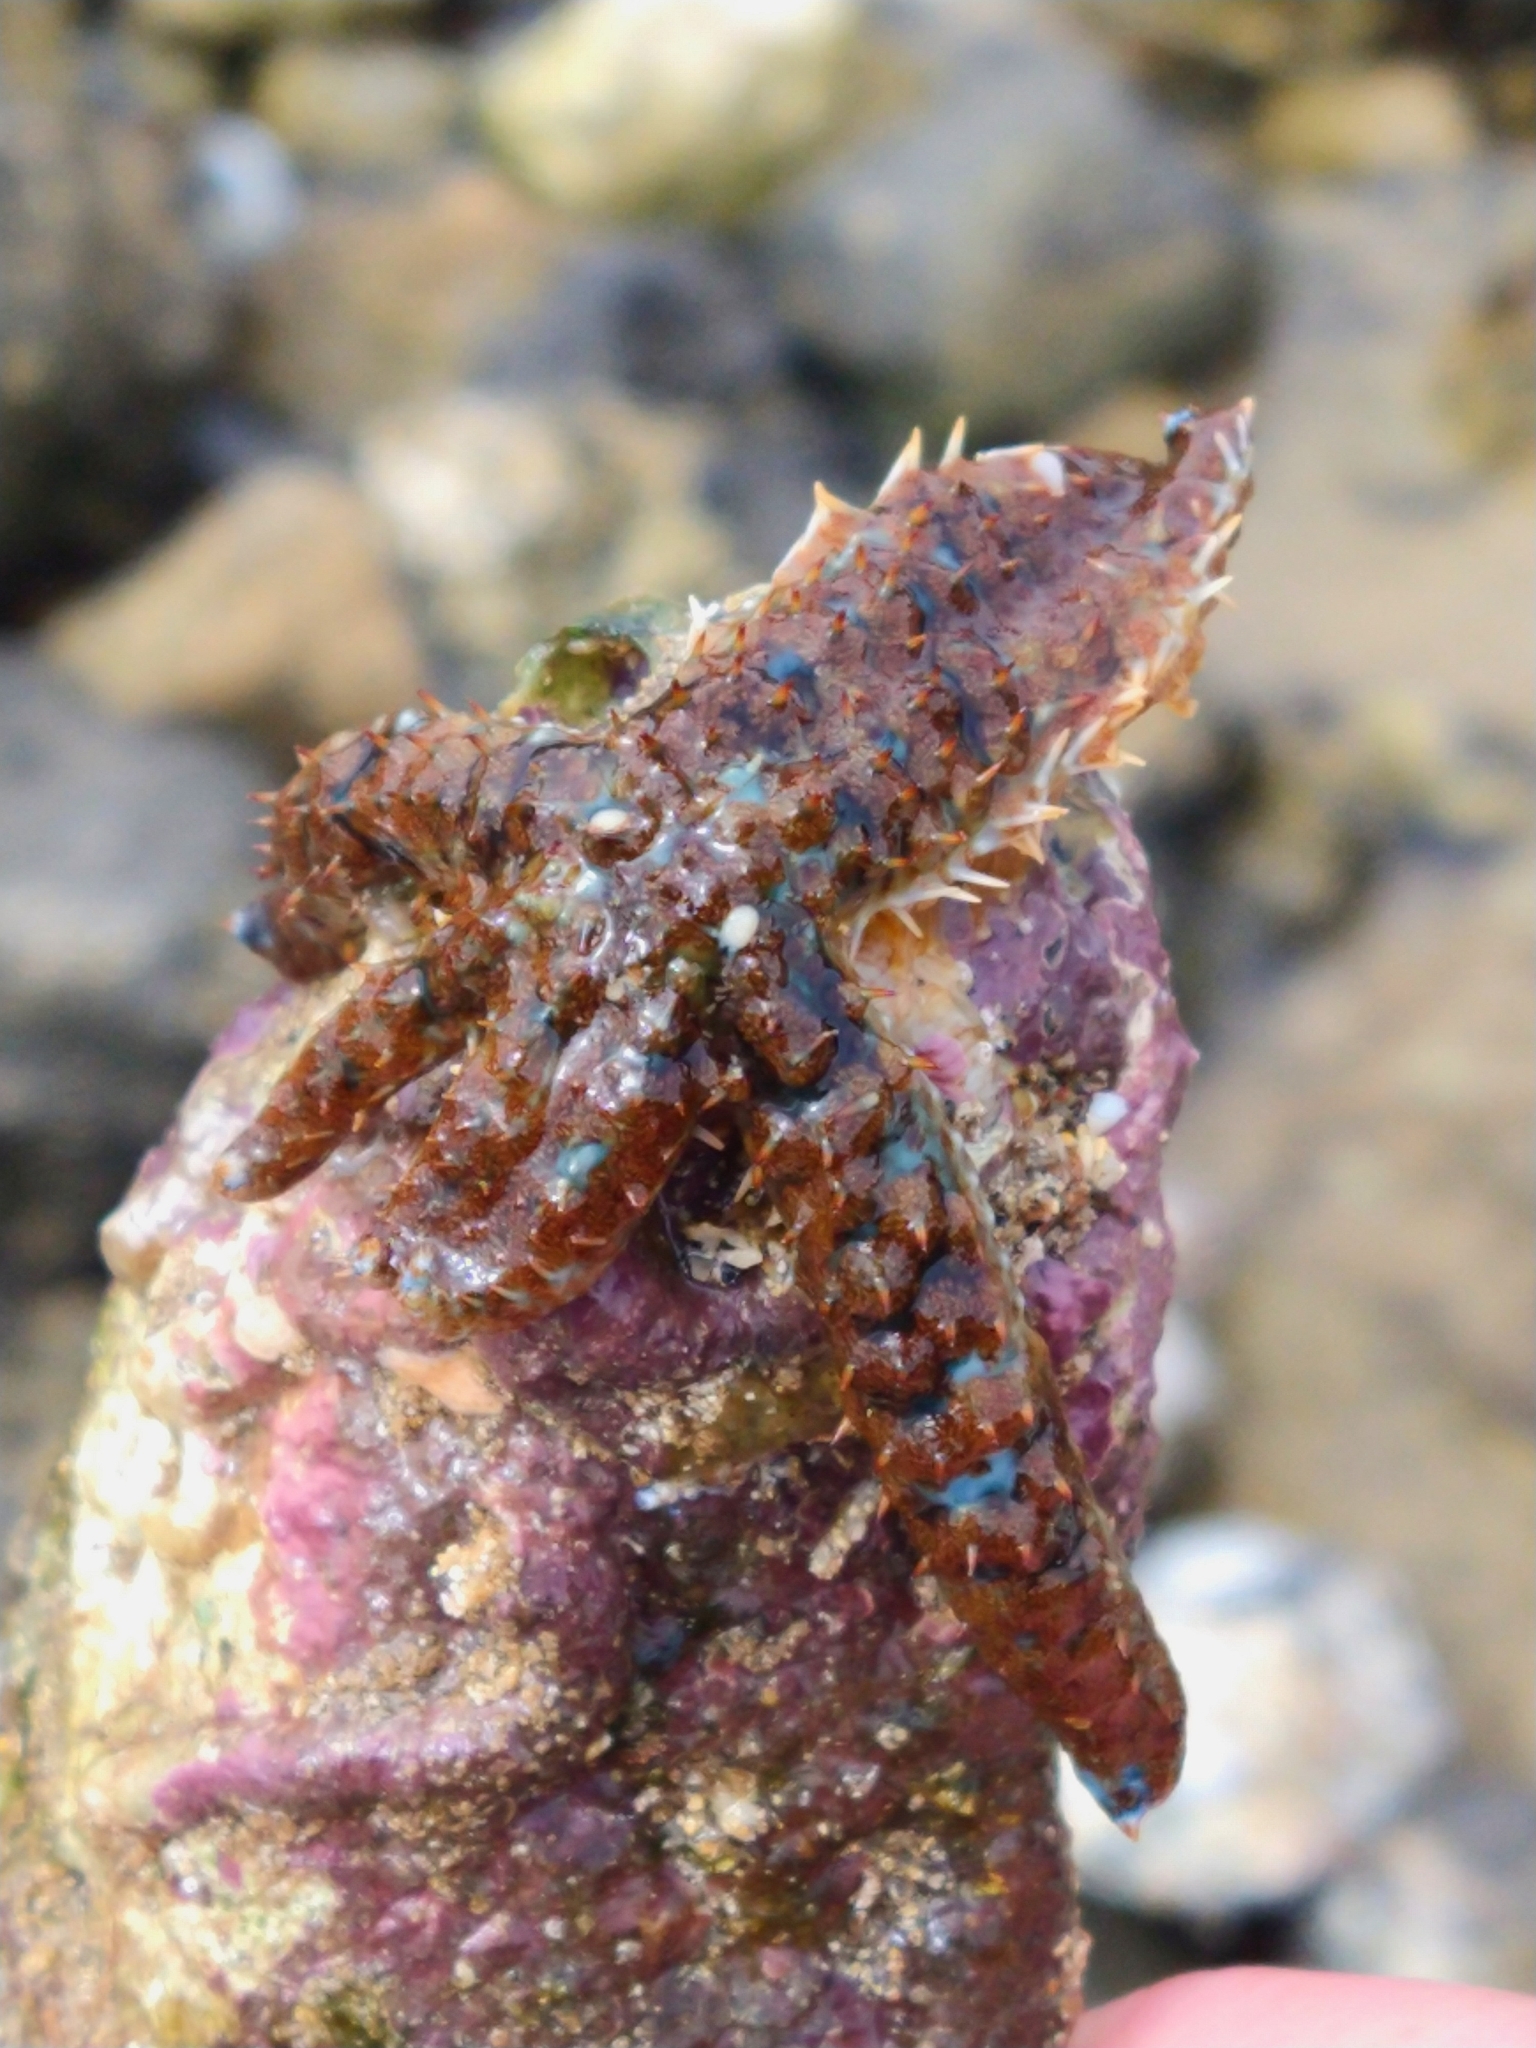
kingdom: Animalia
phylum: Echinodermata
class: Asteroidea
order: Forcipulatida
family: Asteriidae
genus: Coscinasterias
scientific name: Coscinasterias tenuispina
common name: Blue spiny starfish
